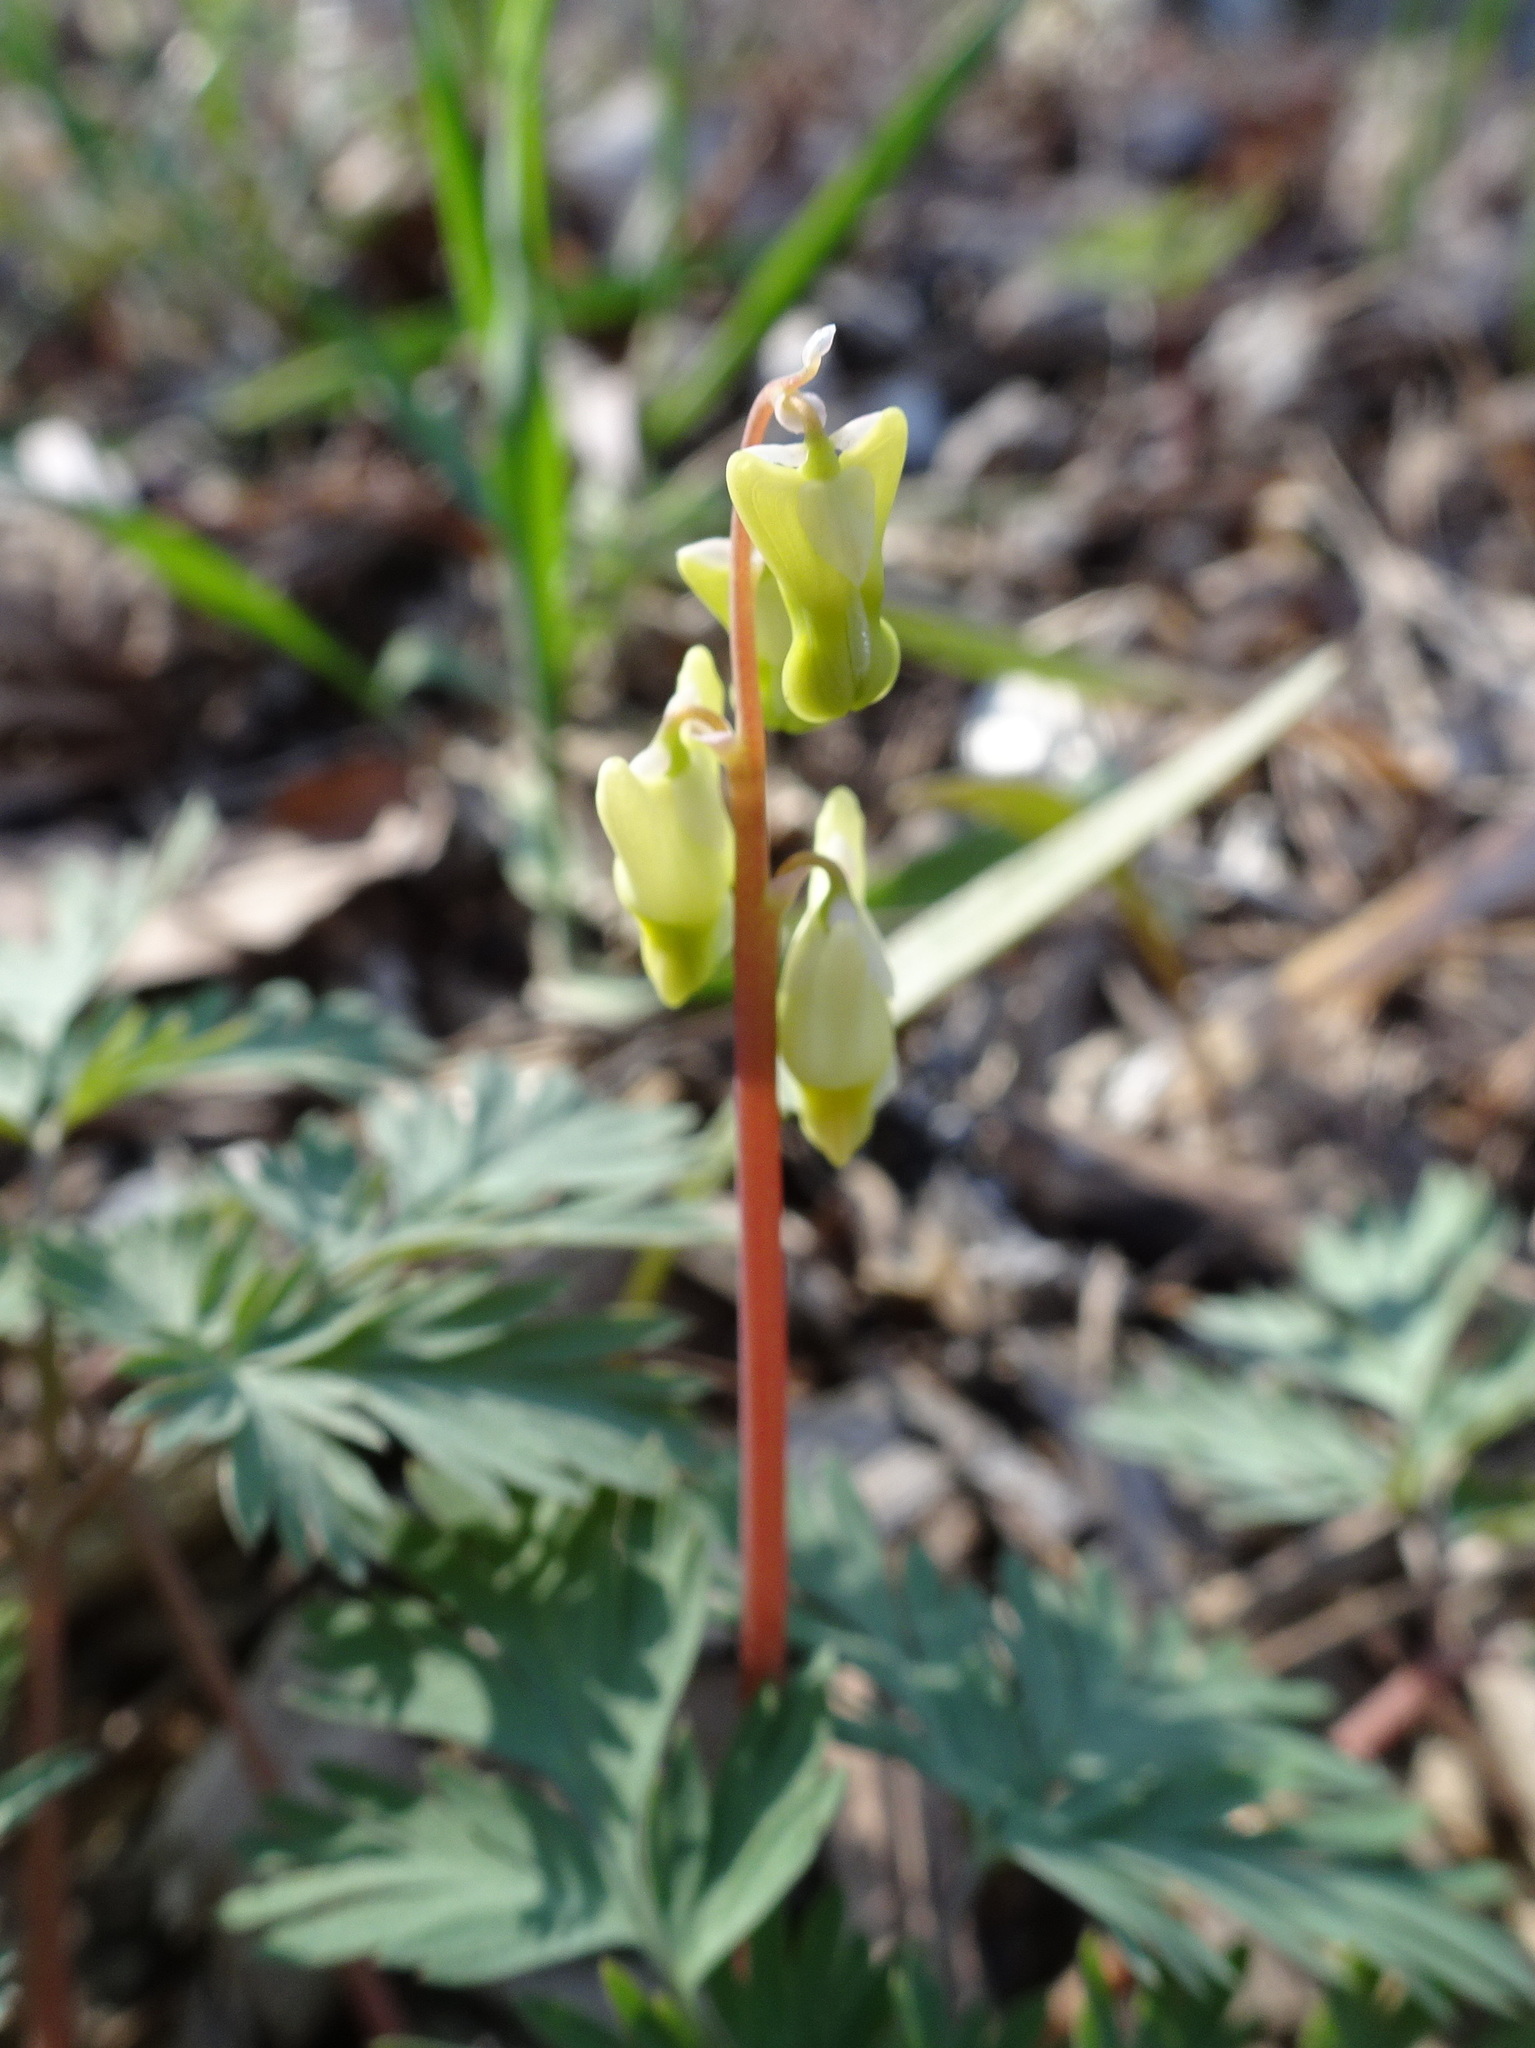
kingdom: Plantae
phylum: Tracheophyta
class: Magnoliopsida
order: Ranunculales
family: Papaveraceae
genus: Dicentra
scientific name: Dicentra cucullaria
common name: Dutchman's breeches
